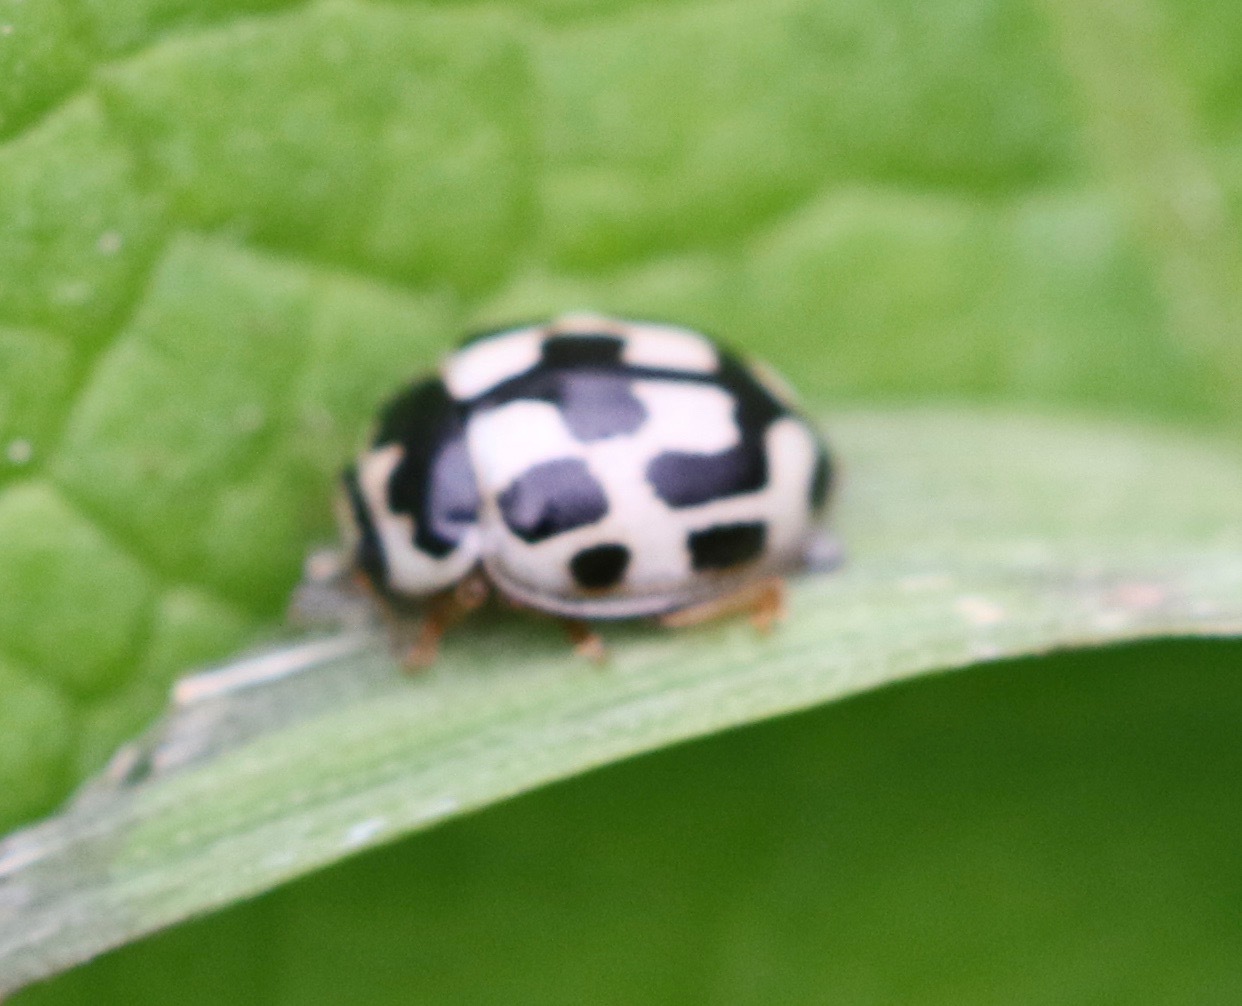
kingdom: Animalia
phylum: Arthropoda
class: Insecta
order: Coleoptera
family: Coccinellidae
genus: Propylaea
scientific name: Propylaea quatuordecimpunctata
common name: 14-spotted ladybird beetle
